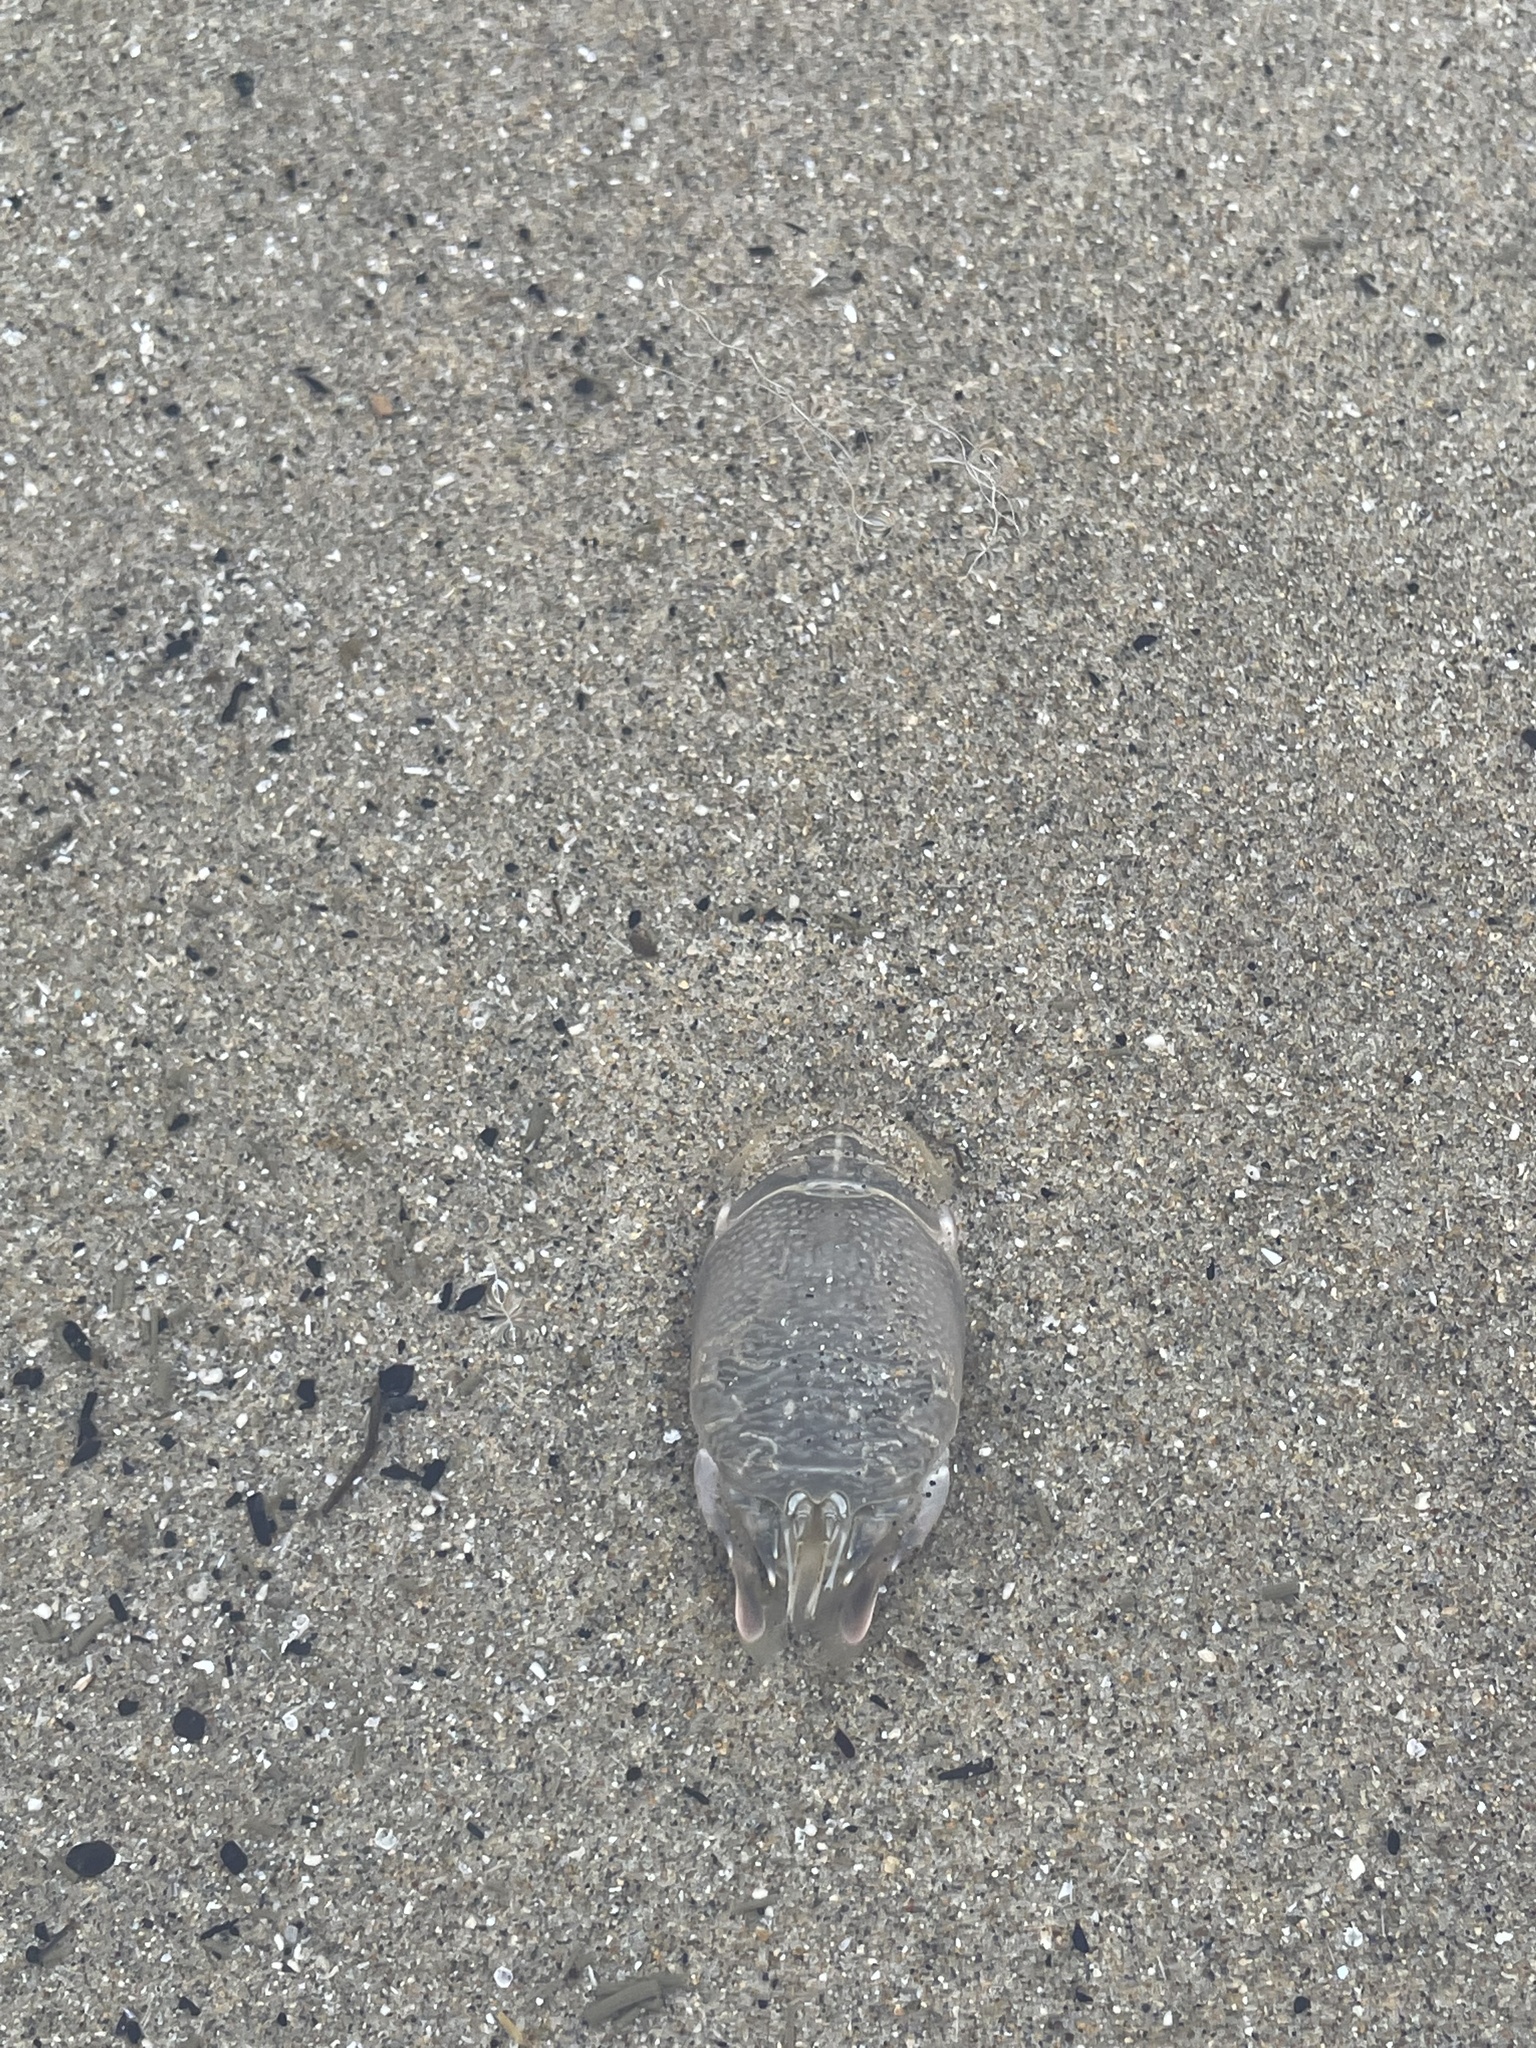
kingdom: Animalia
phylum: Arthropoda
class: Malacostraca
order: Decapoda
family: Hippidae
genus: Emerita
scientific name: Emerita analoga
